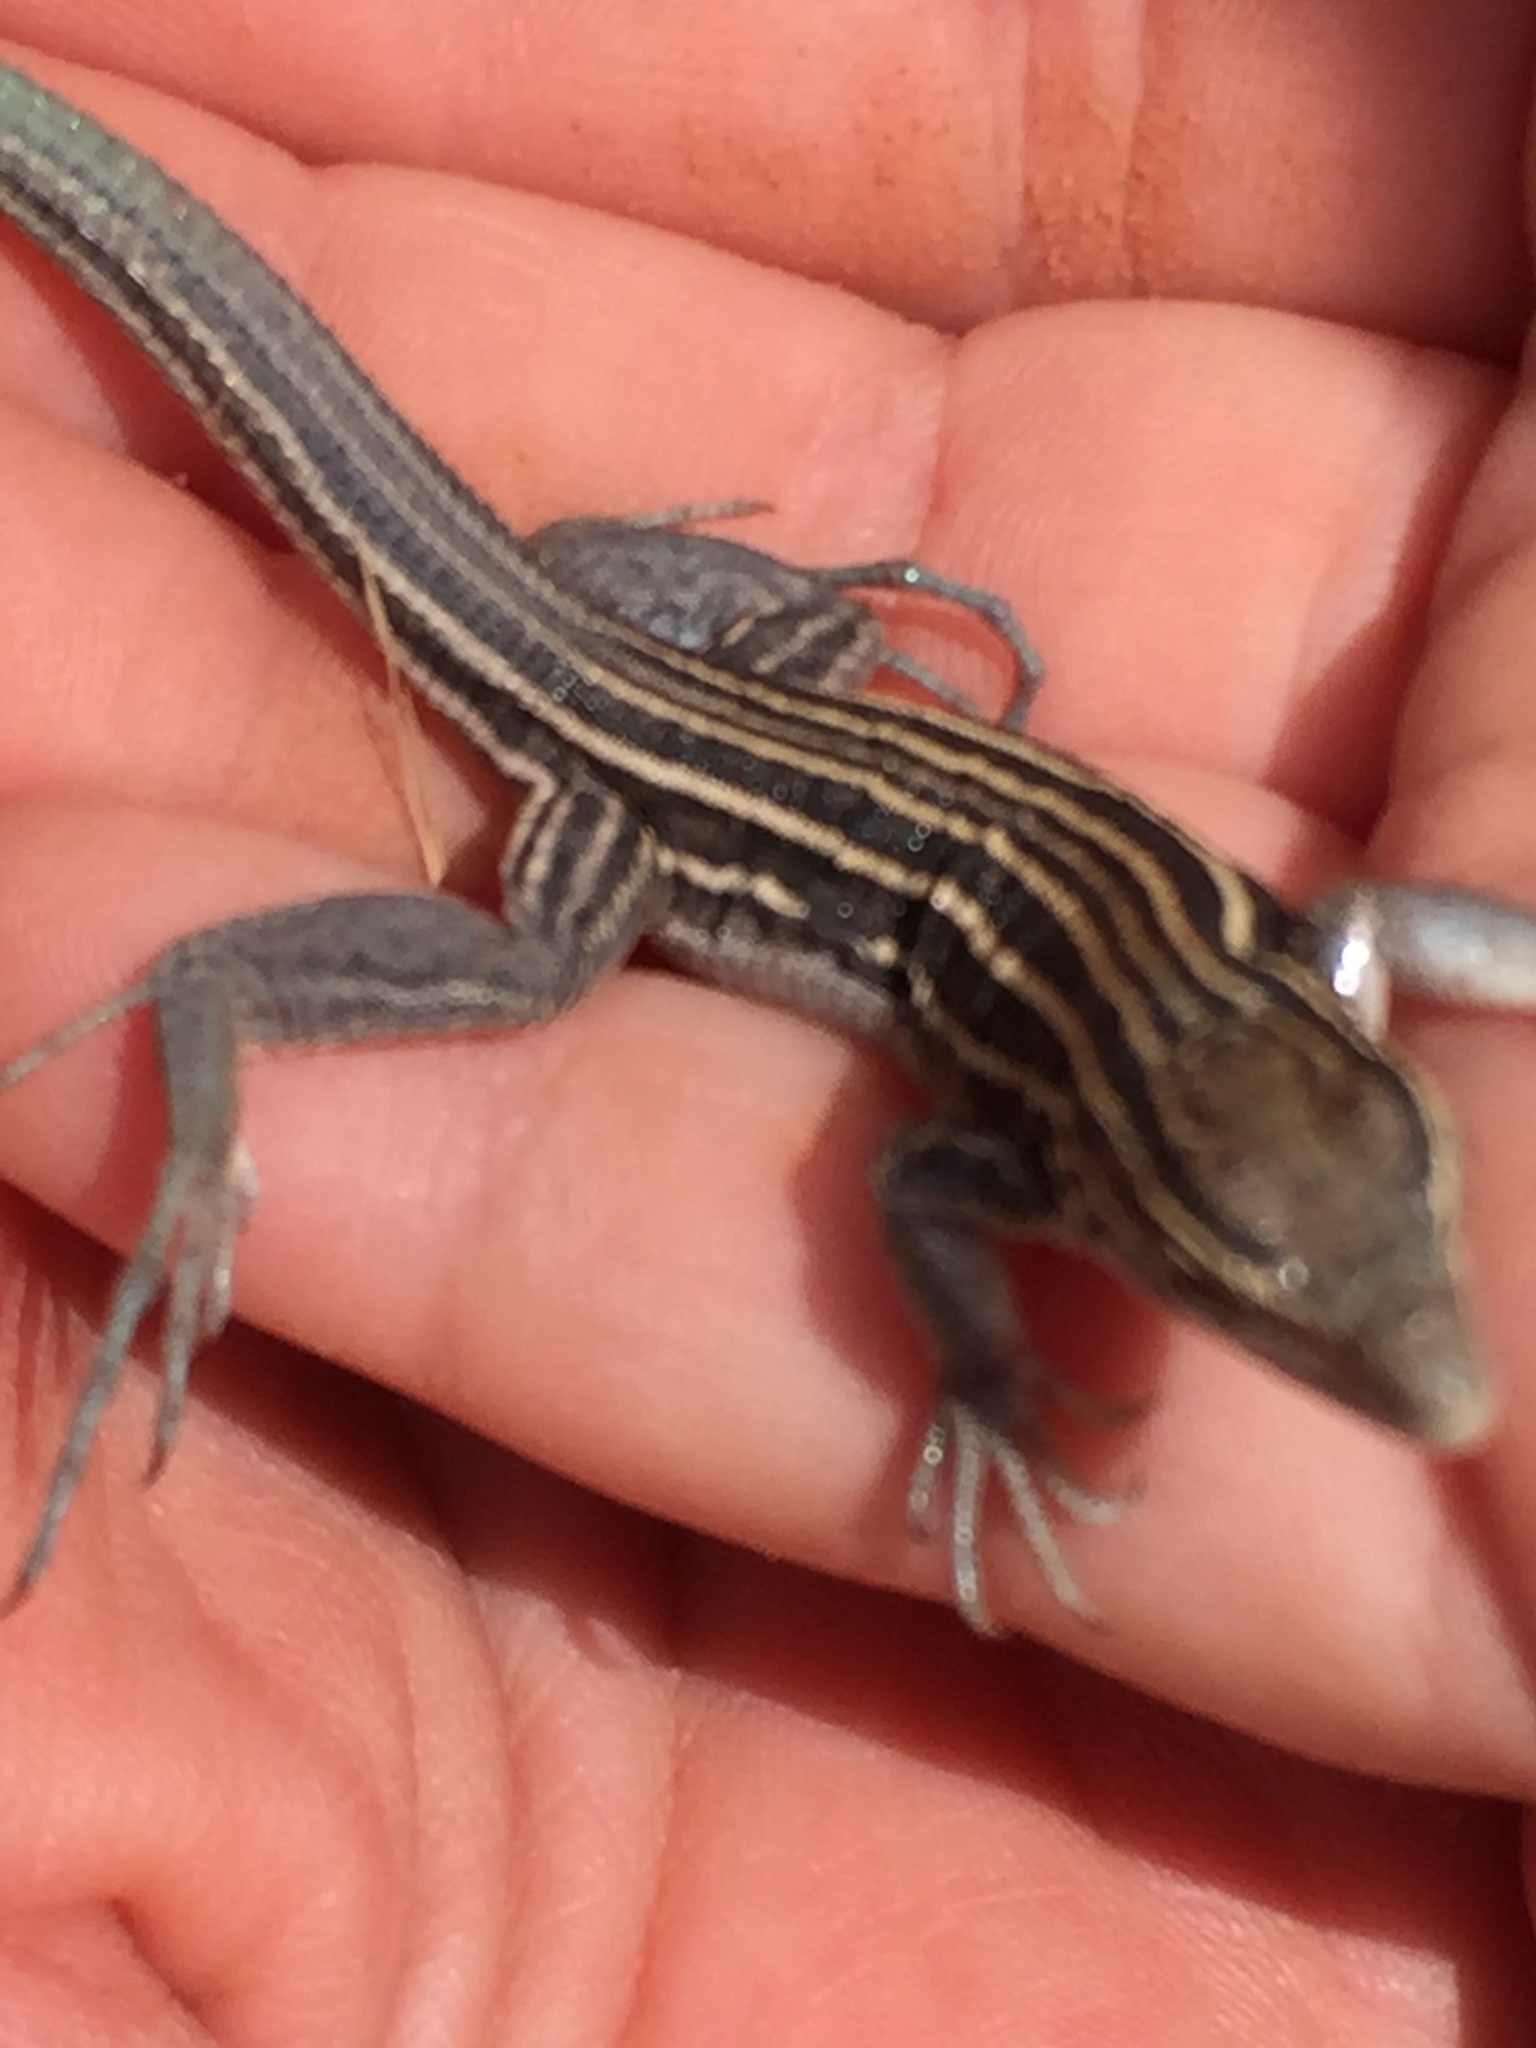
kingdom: Animalia
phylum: Chordata
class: Squamata
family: Teiidae
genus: Aspidoscelis
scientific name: Aspidoscelis velox
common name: Plateau striped whiptail
